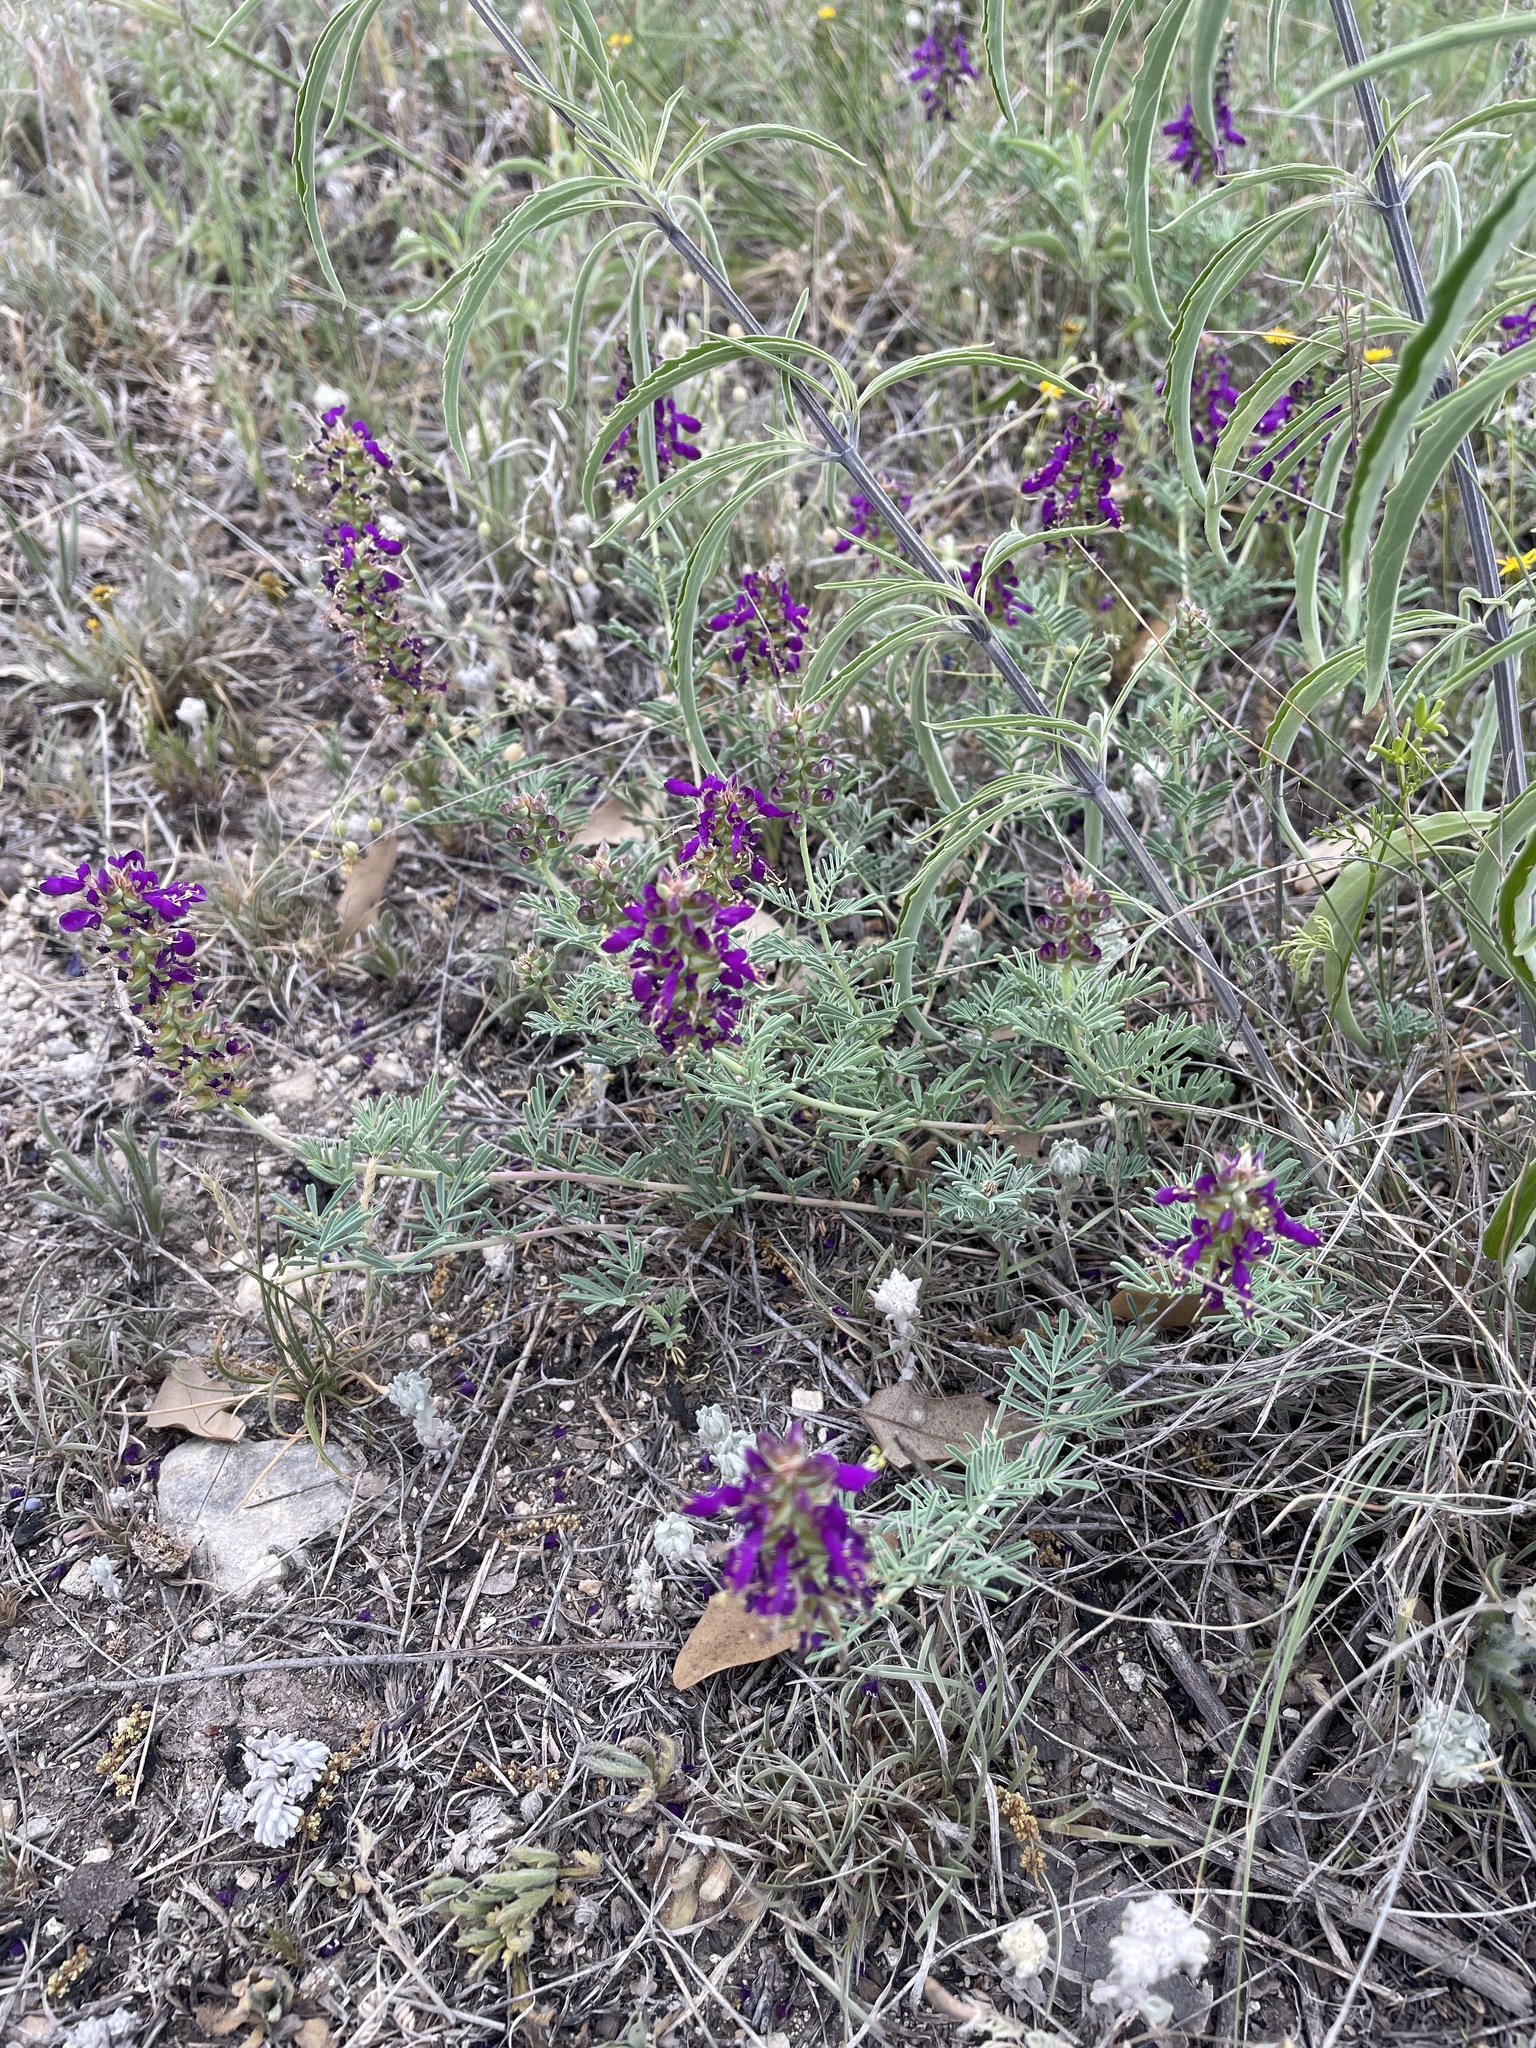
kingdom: Plantae
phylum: Tracheophyta
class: Magnoliopsida
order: Fabales
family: Fabaceae
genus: Dalea
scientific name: Dalea pogonathera
